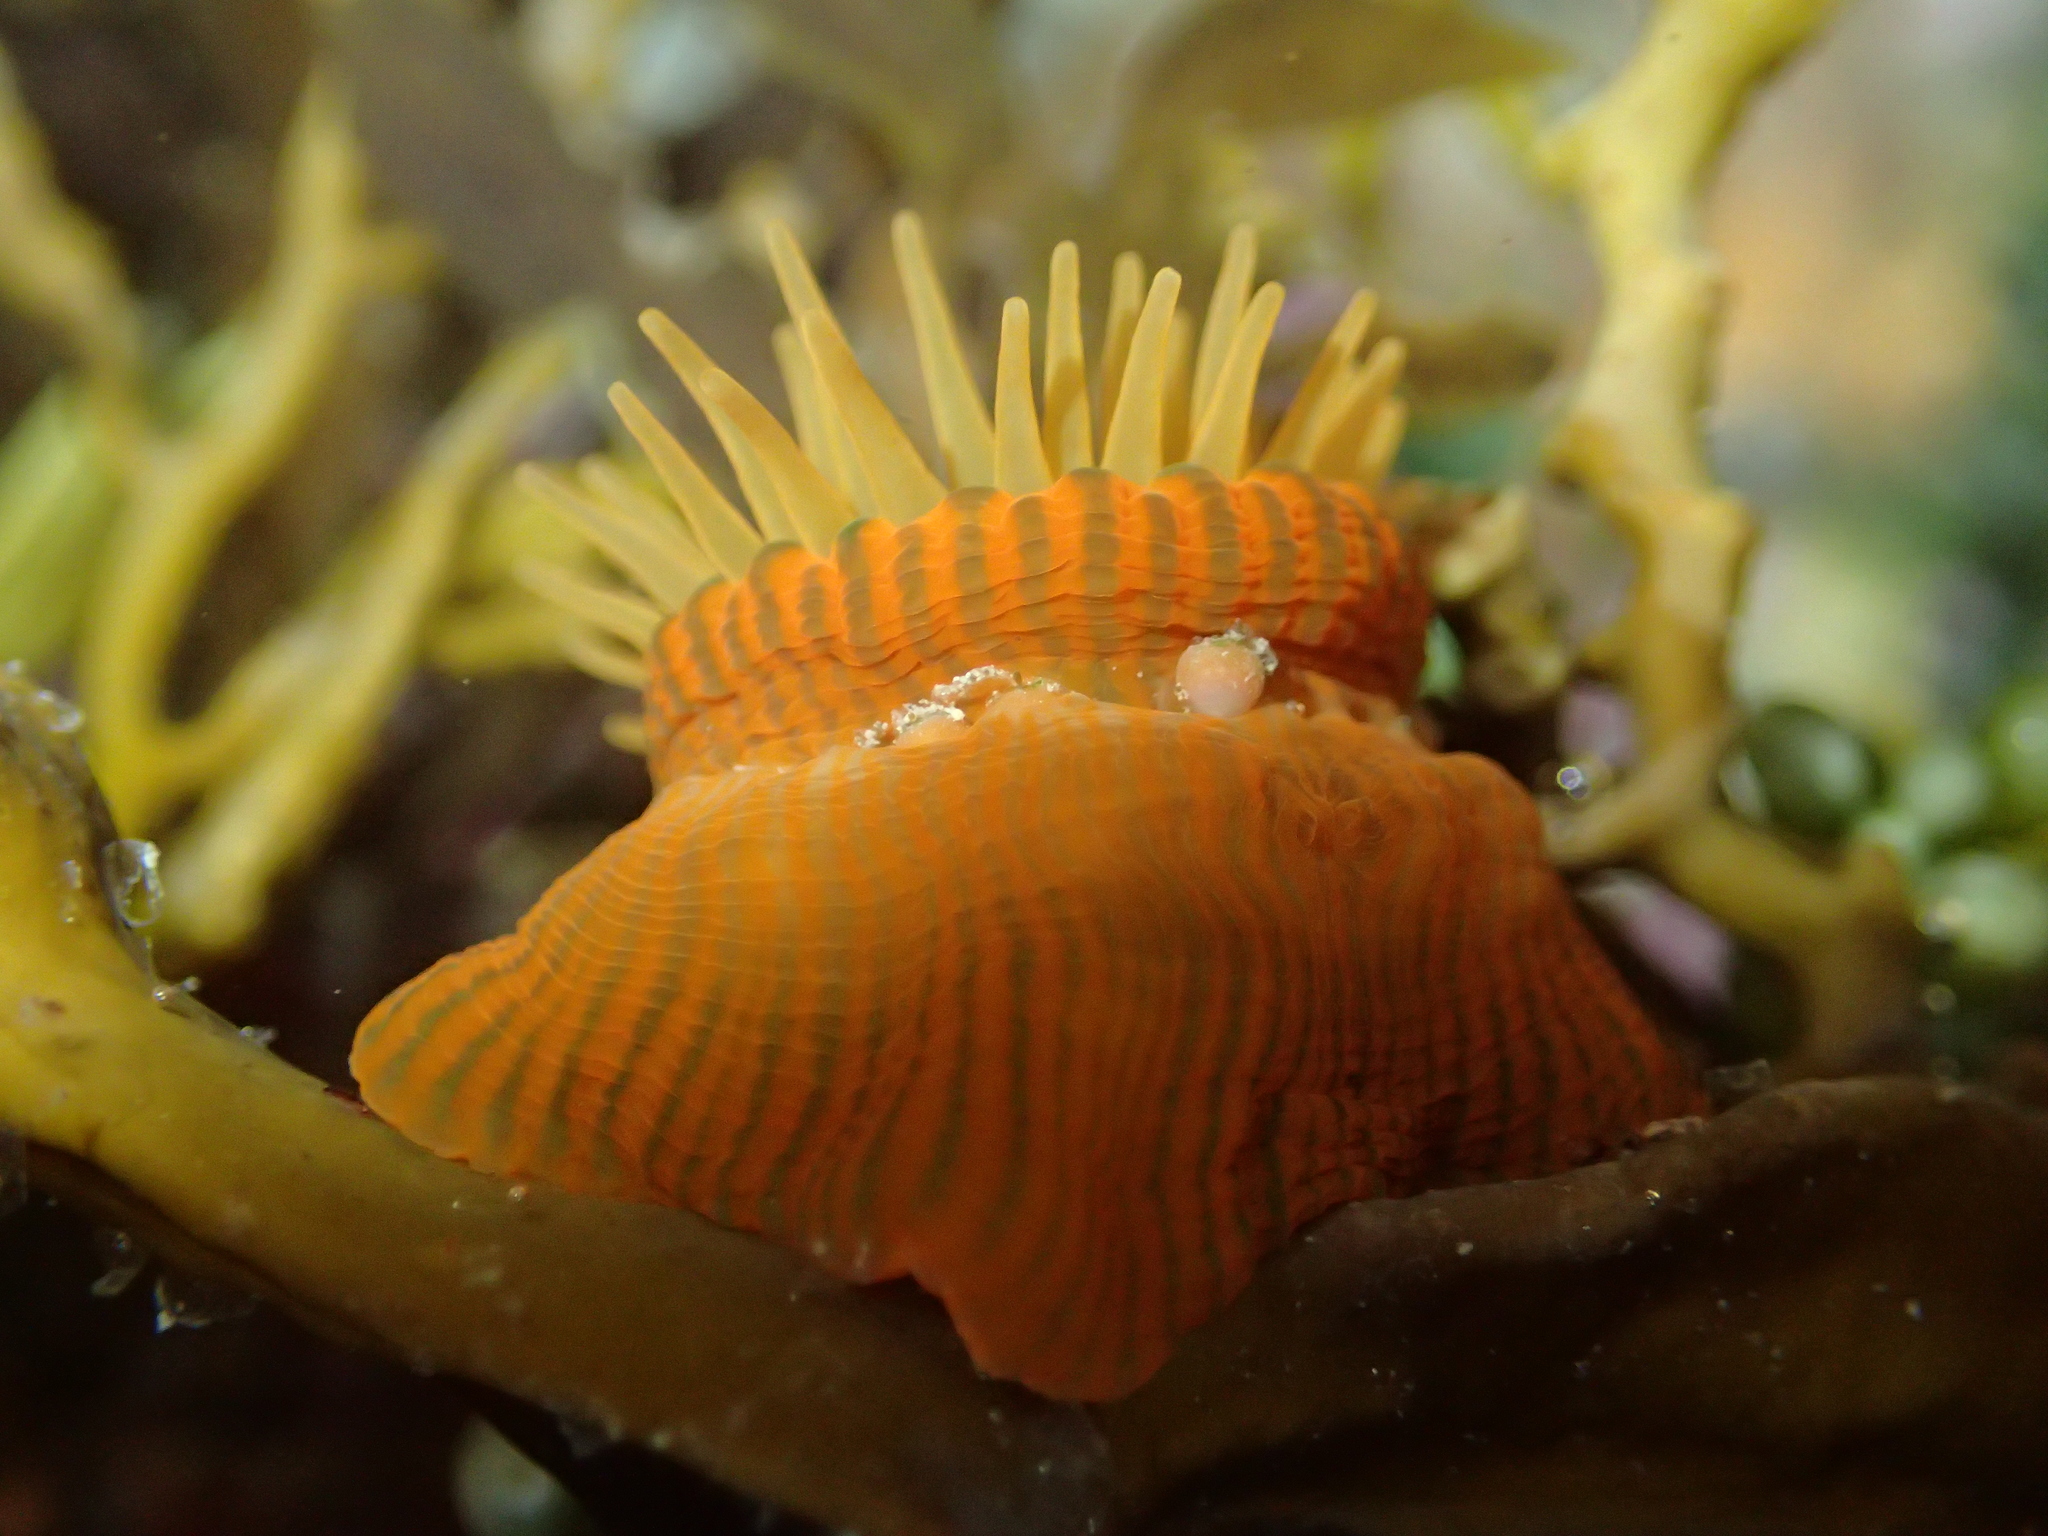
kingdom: Animalia
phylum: Cnidaria
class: Anthozoa
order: Actiniaria
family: Actiniidae
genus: Epiactis
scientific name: Epiactis
